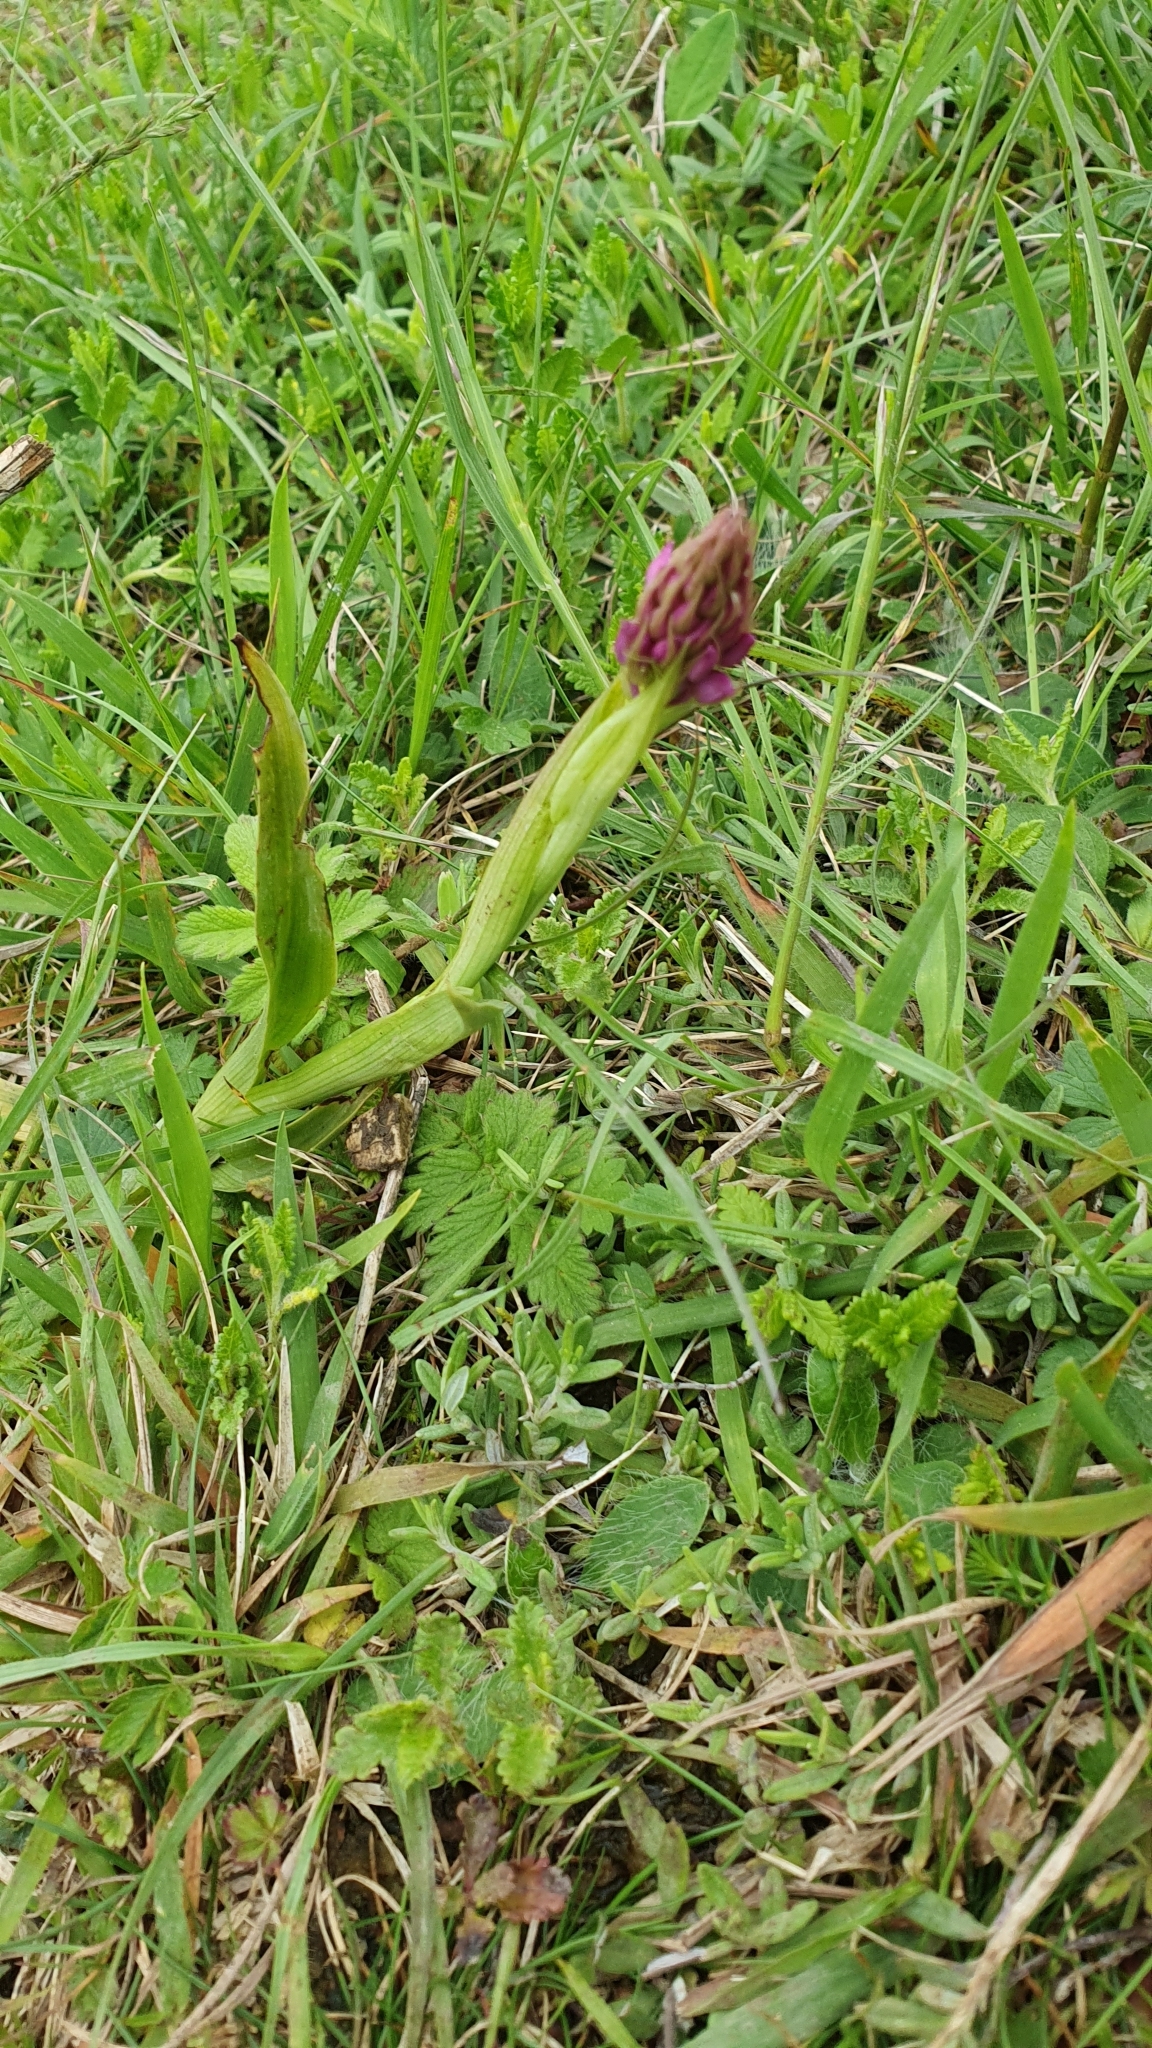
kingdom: Plantae
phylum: Tracheophyta
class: Liliopsida
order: Asparagales
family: Orchidaceae
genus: Anacamptis
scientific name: Anacamptis pyramidalis
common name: Pyramidal orchid
